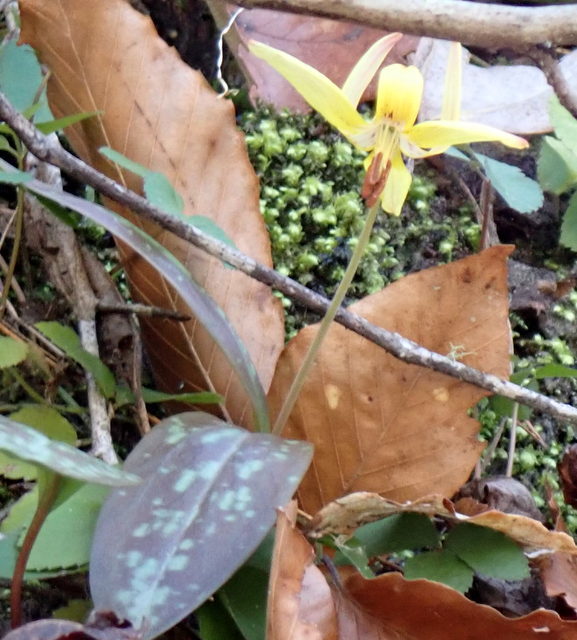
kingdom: Plantae
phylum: Tracheophyta
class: Liliopsida
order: Liliales
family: Liliaceae
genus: Erythronium
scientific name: Erythronium umbilicatum
